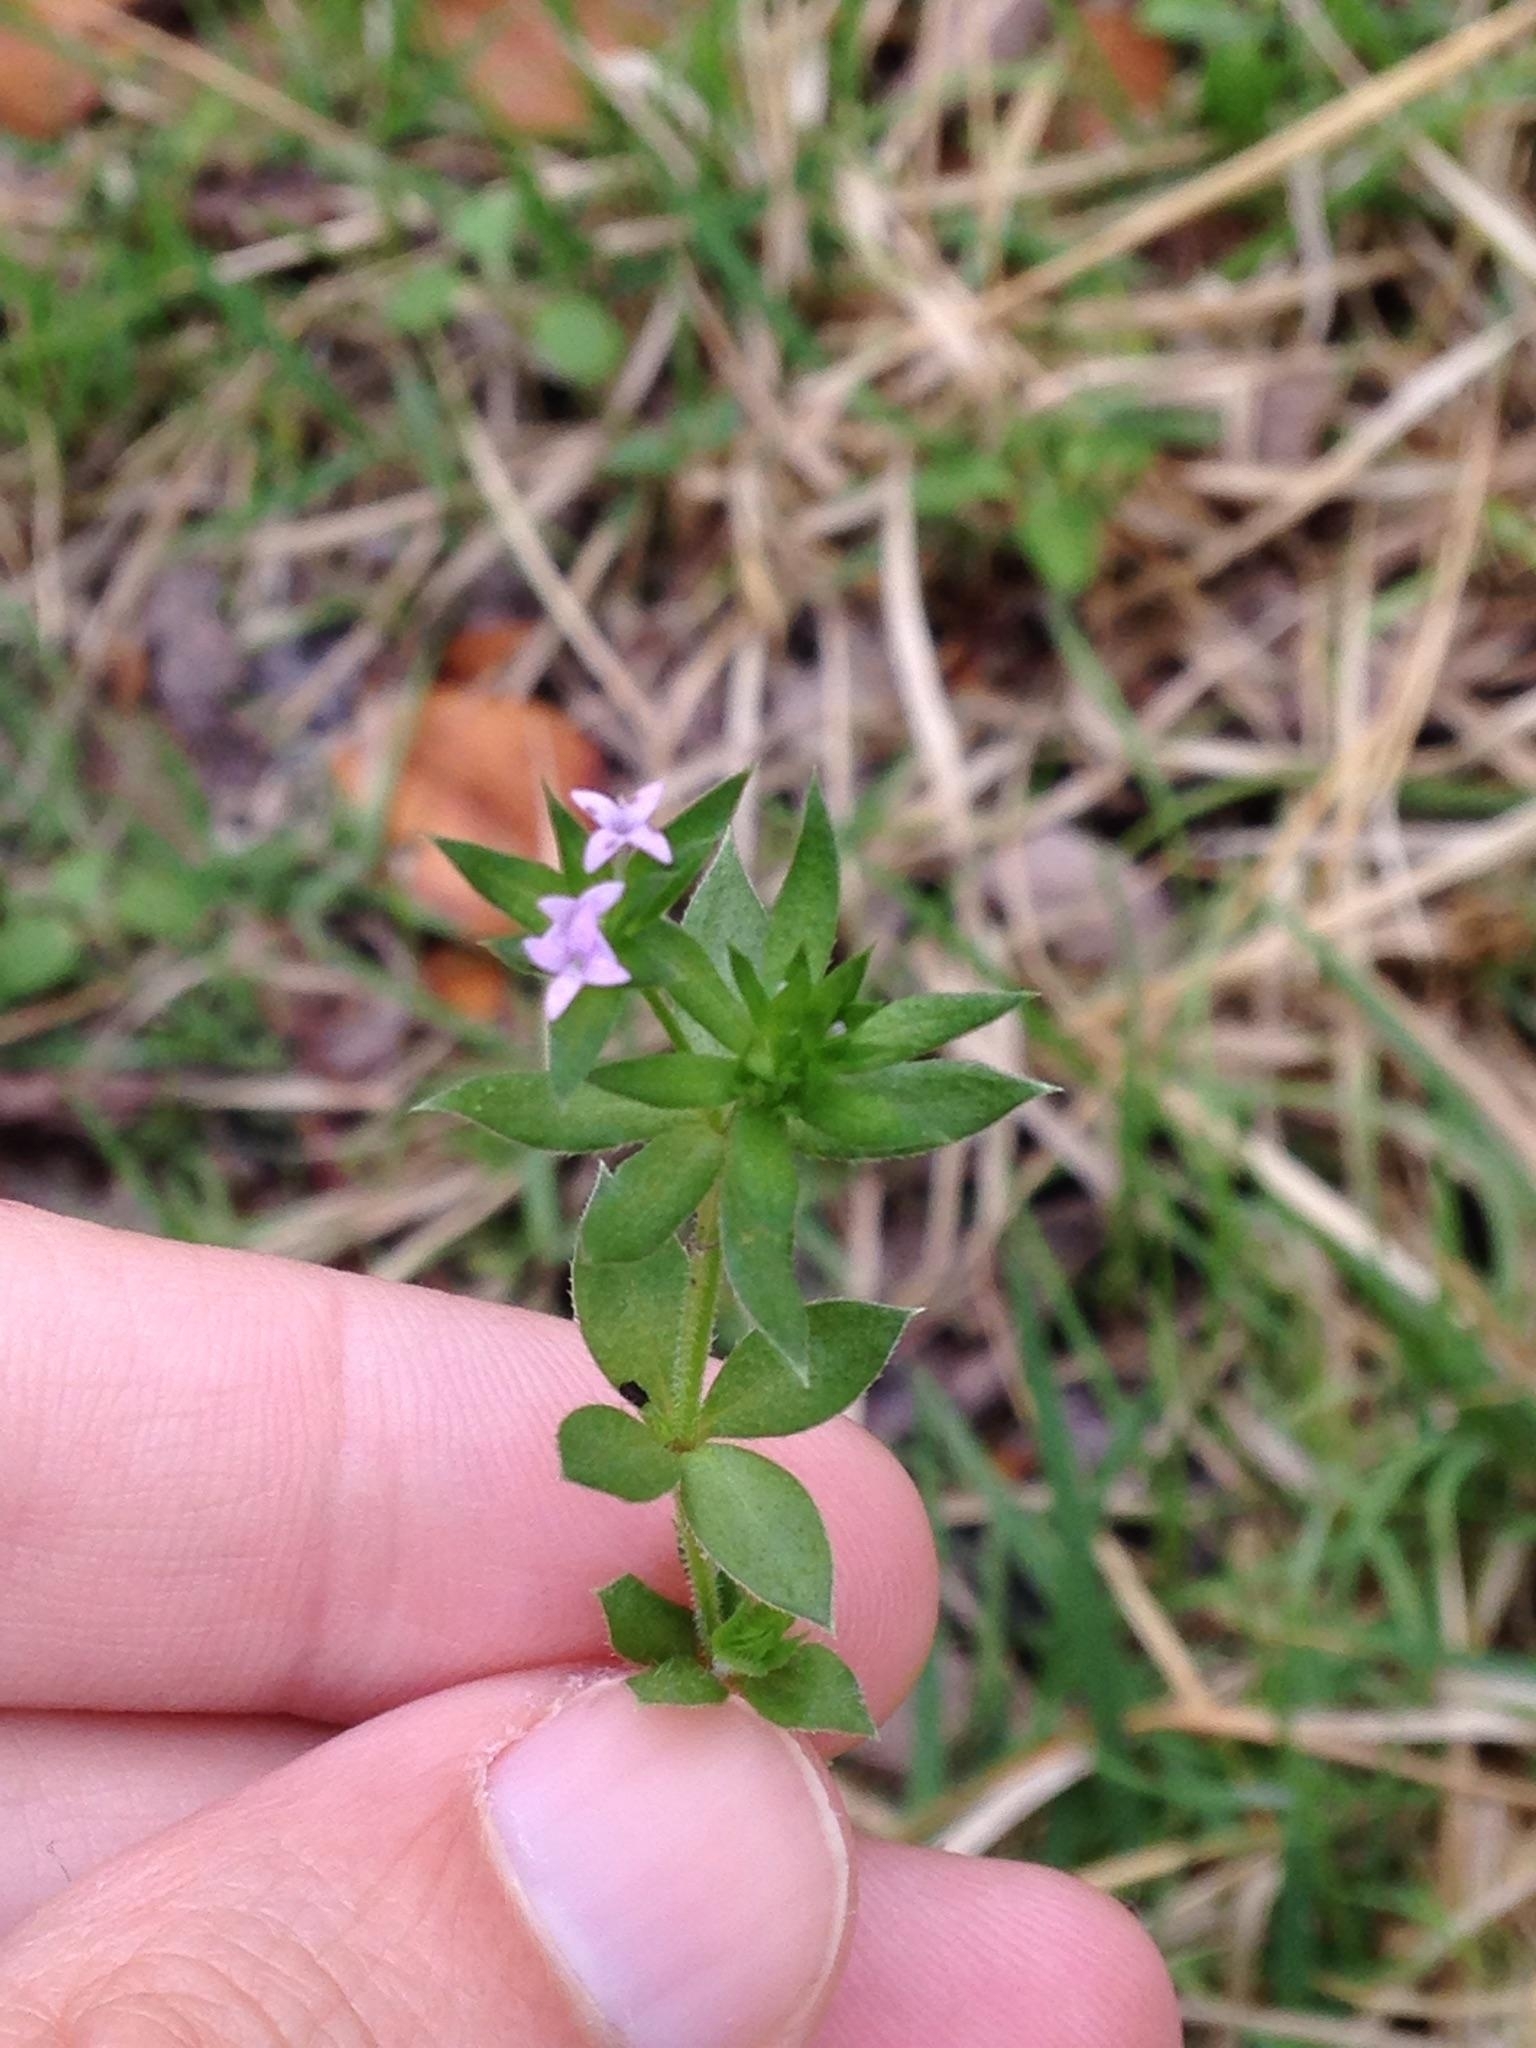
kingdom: Plantae
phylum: Tracheophyta
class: Magnoliopsida
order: Gentianales
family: Rubiaceae
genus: Sherardia
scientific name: Sherardia arvensis
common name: Field madder
